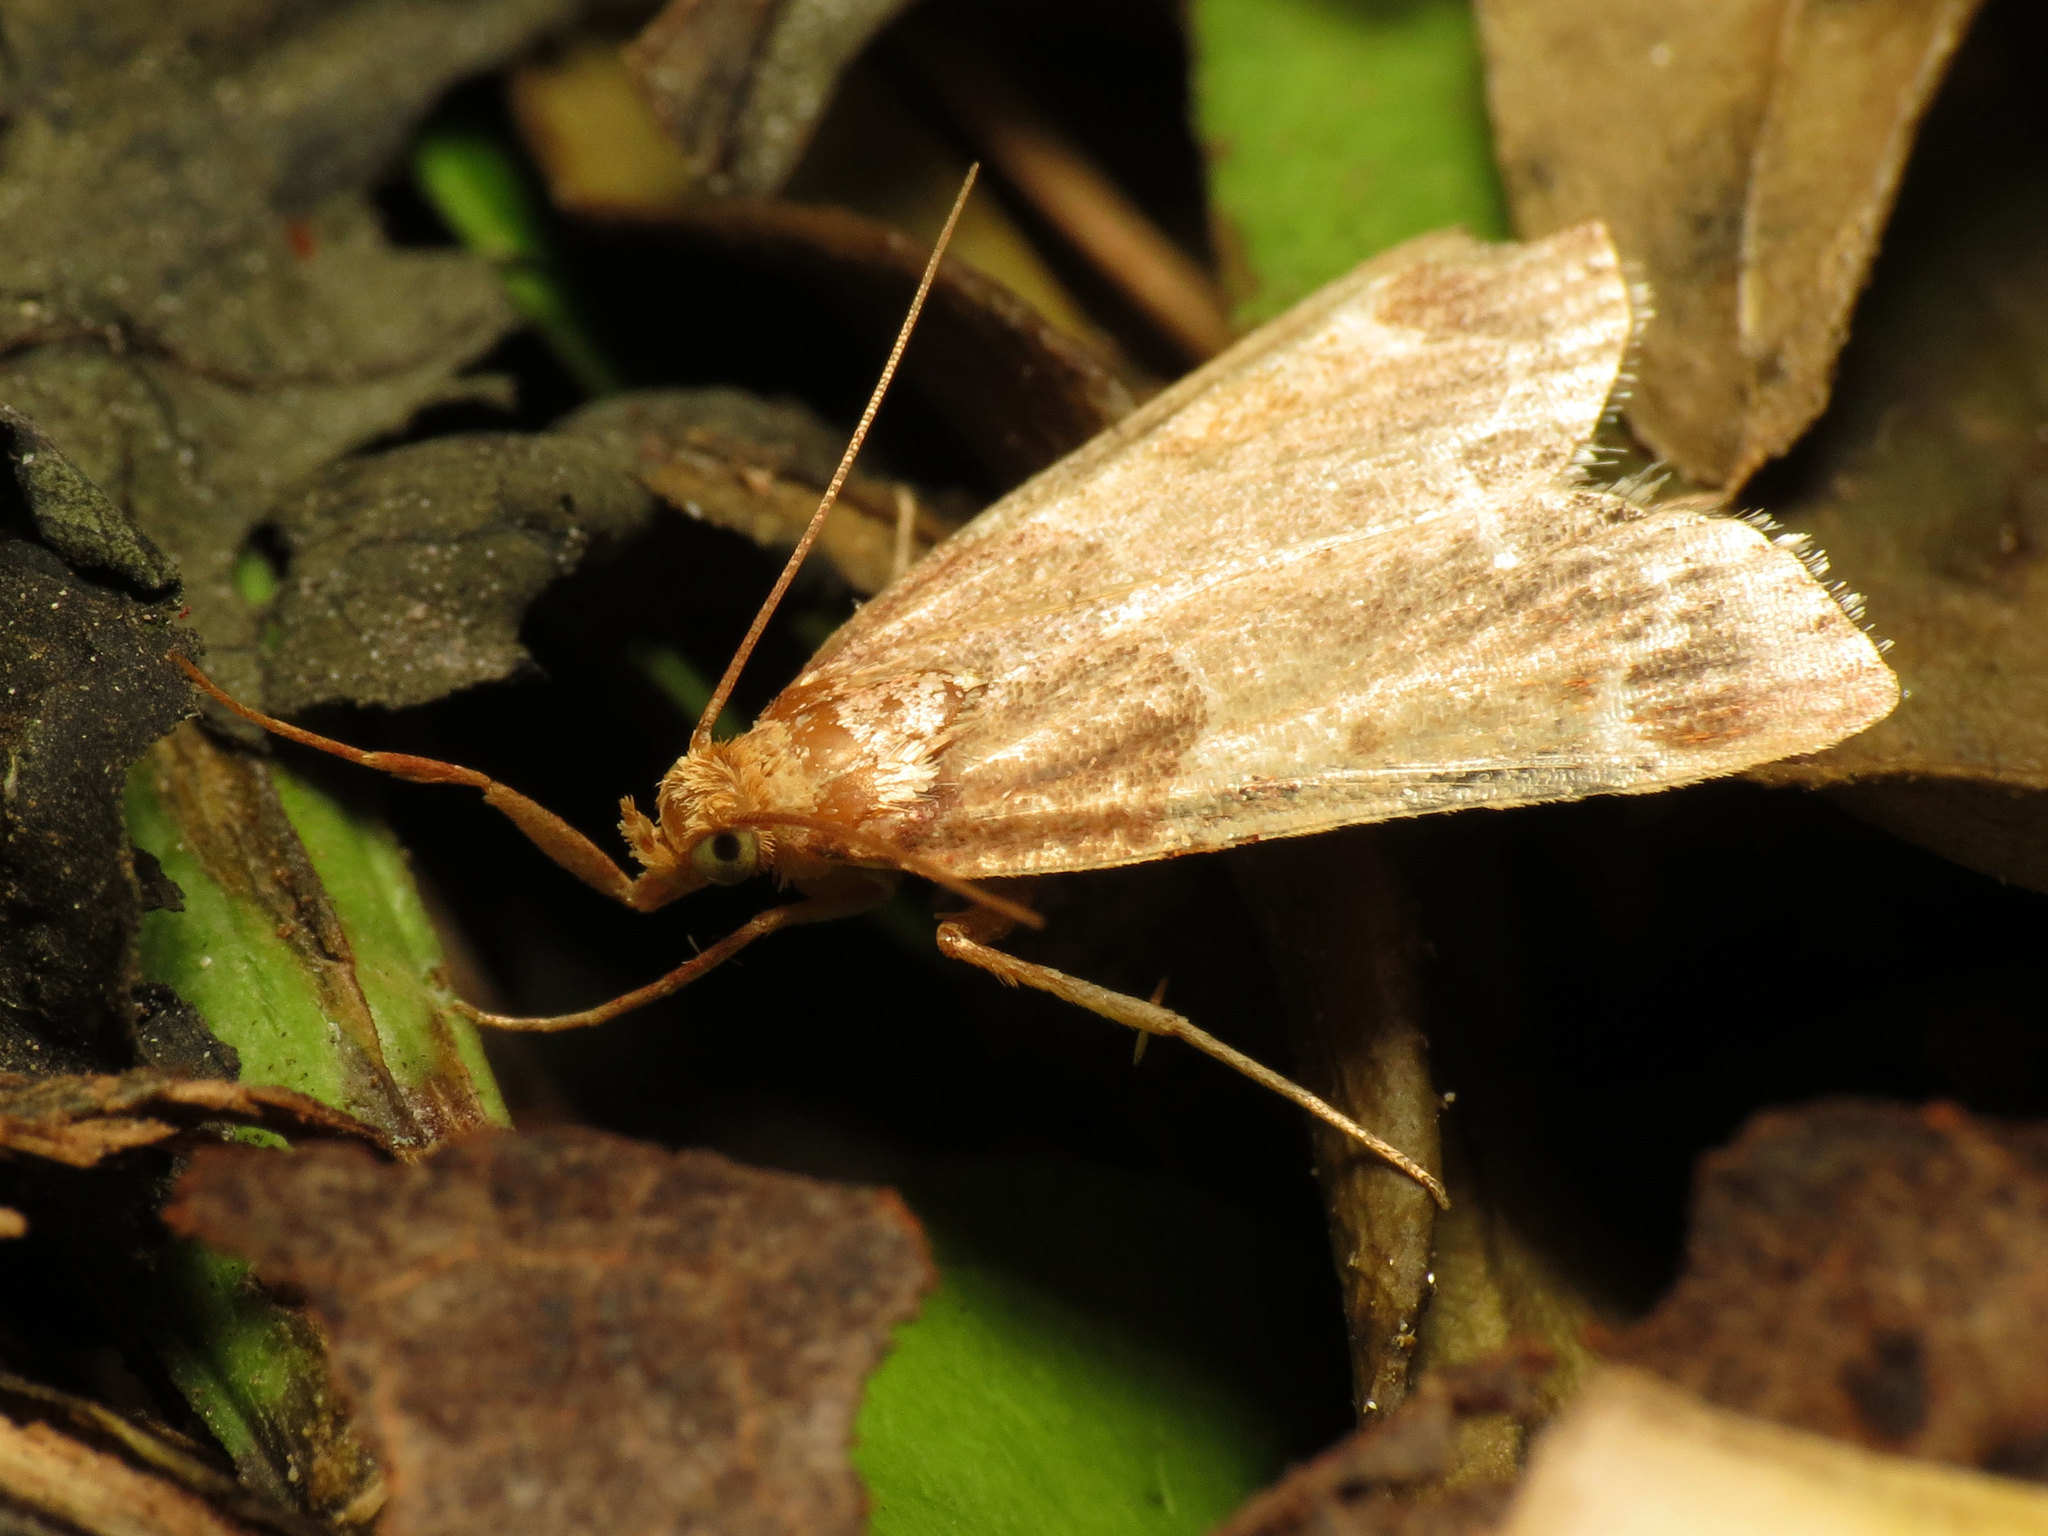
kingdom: Animalia
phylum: Arthropoda
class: Insecta
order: Lepidoptera
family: Pyralidae
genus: Pyralis
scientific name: Pyralis farinalis
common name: Meal moth
